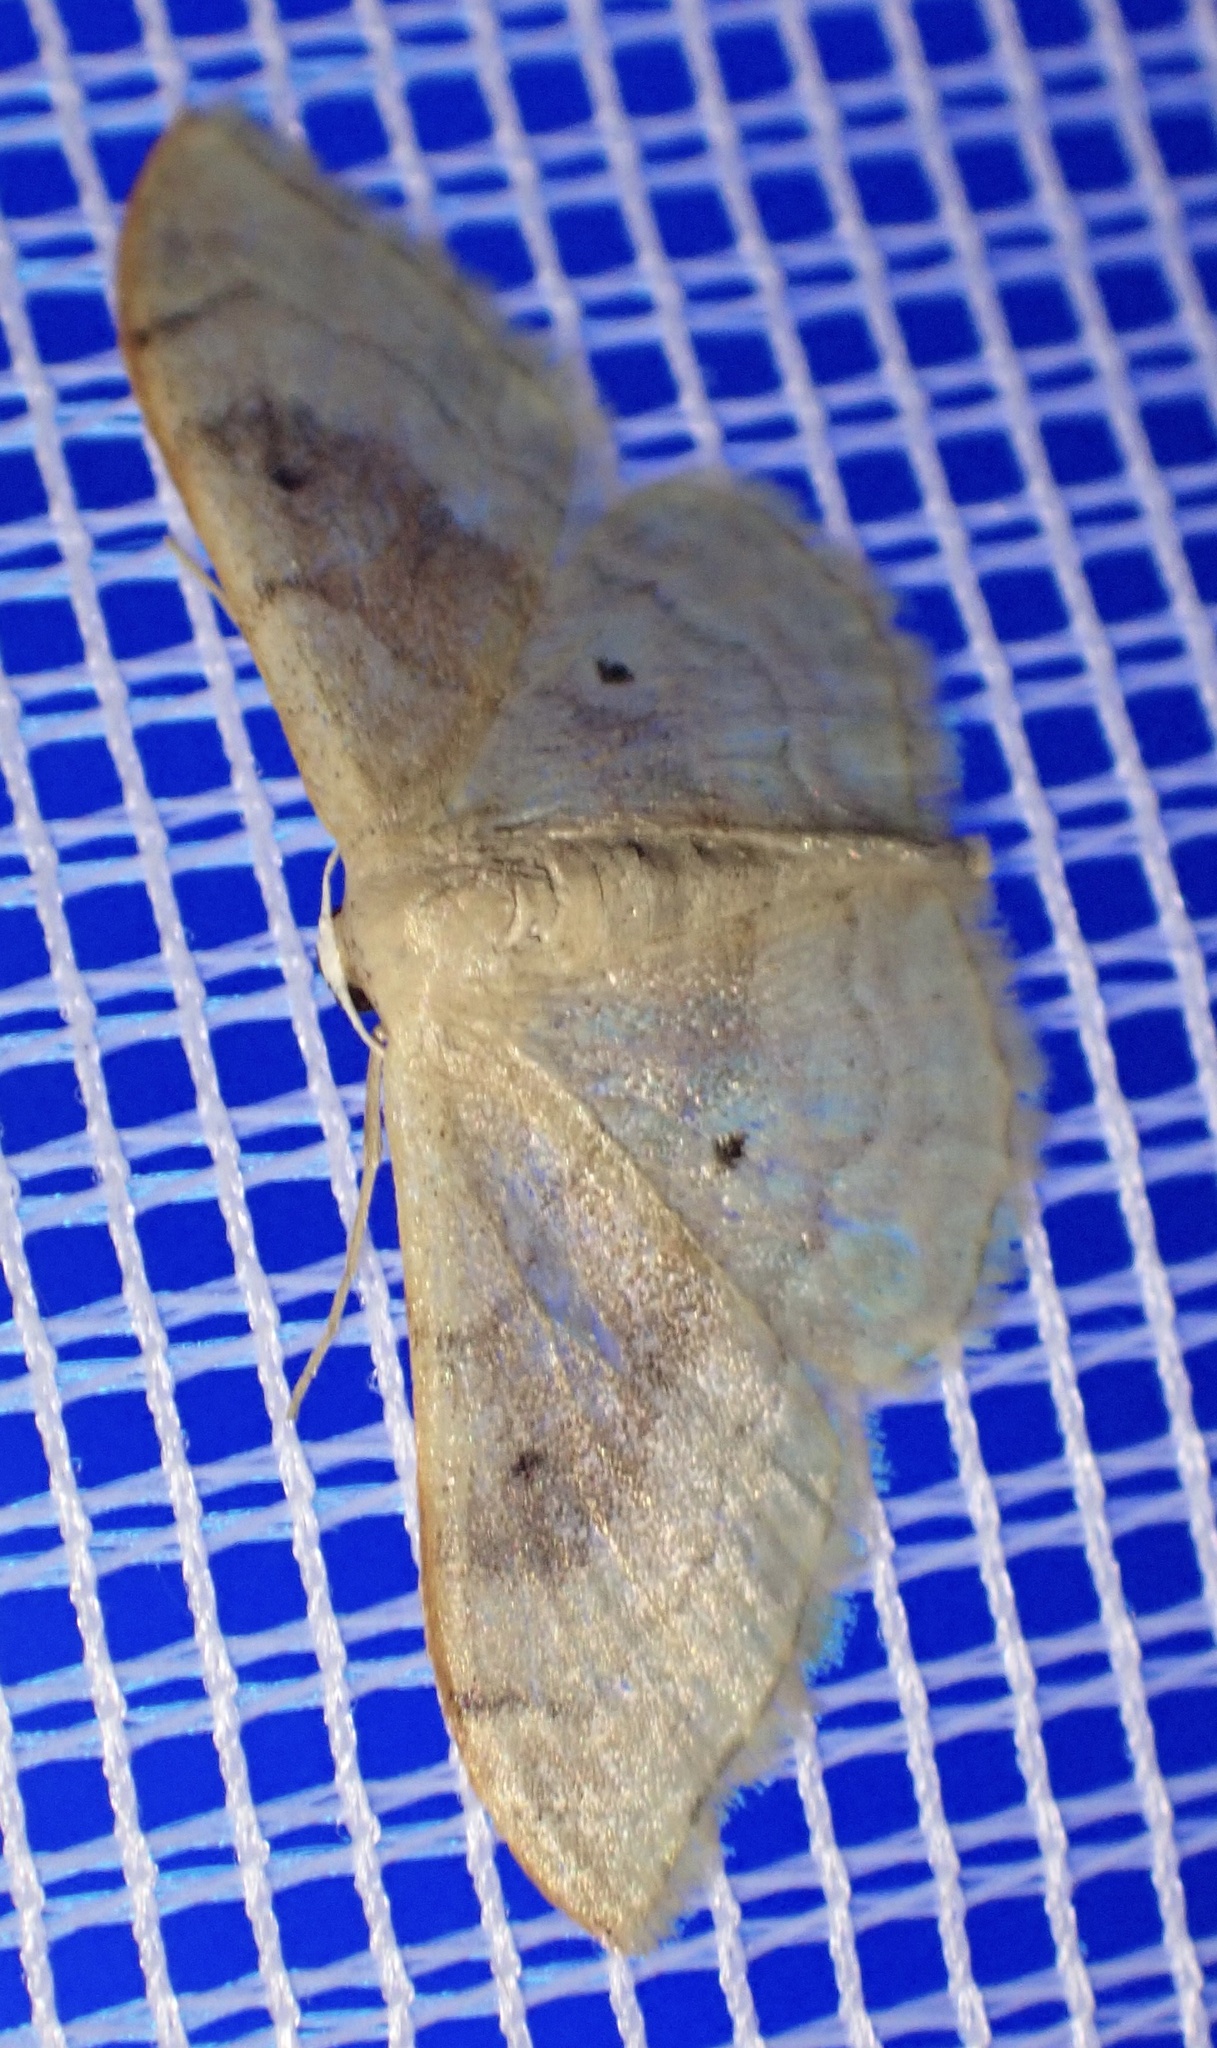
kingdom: Animalia
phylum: Arthropoda
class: Insecta
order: Lepidoptera
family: Geometridae
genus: Idaea
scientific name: Idaea degeneraria
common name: Portland ribbon wave
